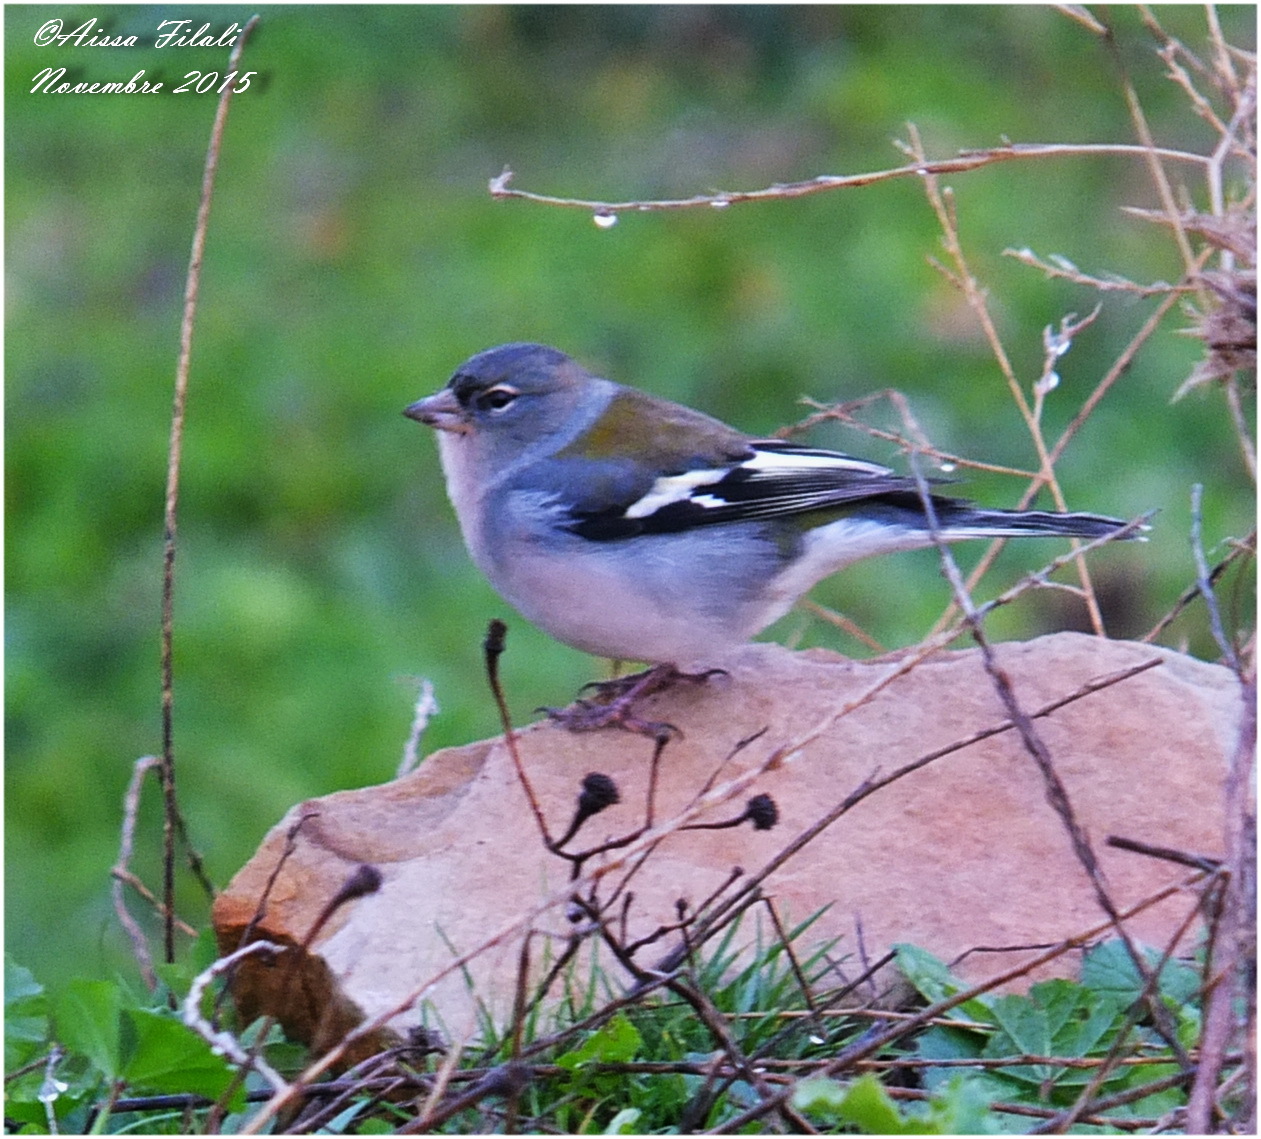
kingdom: Animalia
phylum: Chordata
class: Aves
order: Passeriformes
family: Fringillidae
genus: Fringilla
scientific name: Fringilla spodiogenys
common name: African chaffinch
